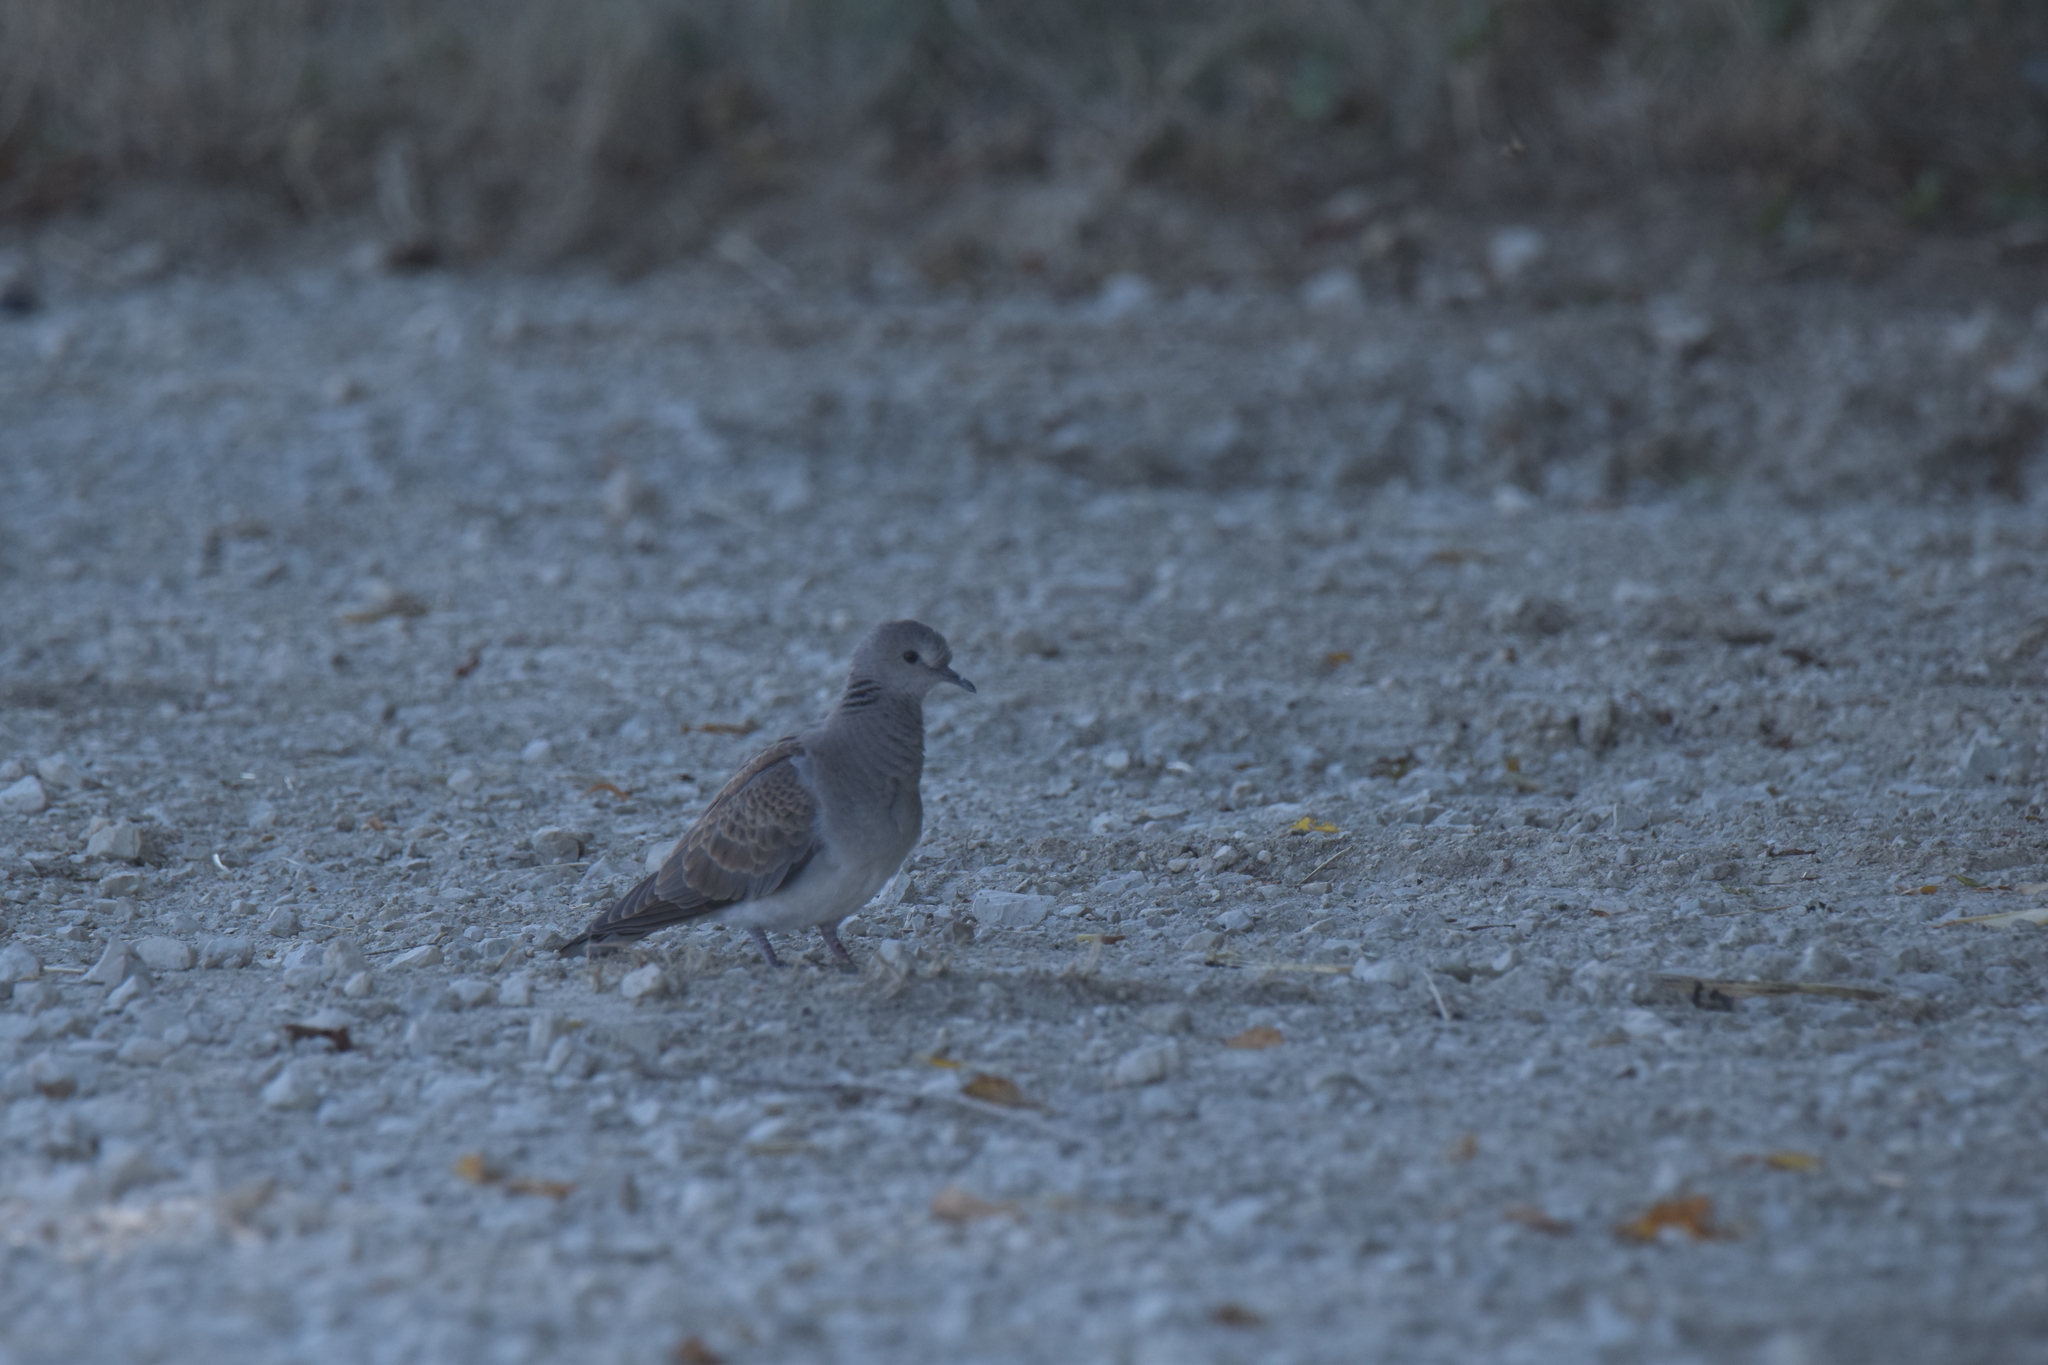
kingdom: Animalia
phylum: Chordata
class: Aves
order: Columbiformes
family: Columbidae
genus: Streptopelia
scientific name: Streptopelia turtur
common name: European turtle dove
